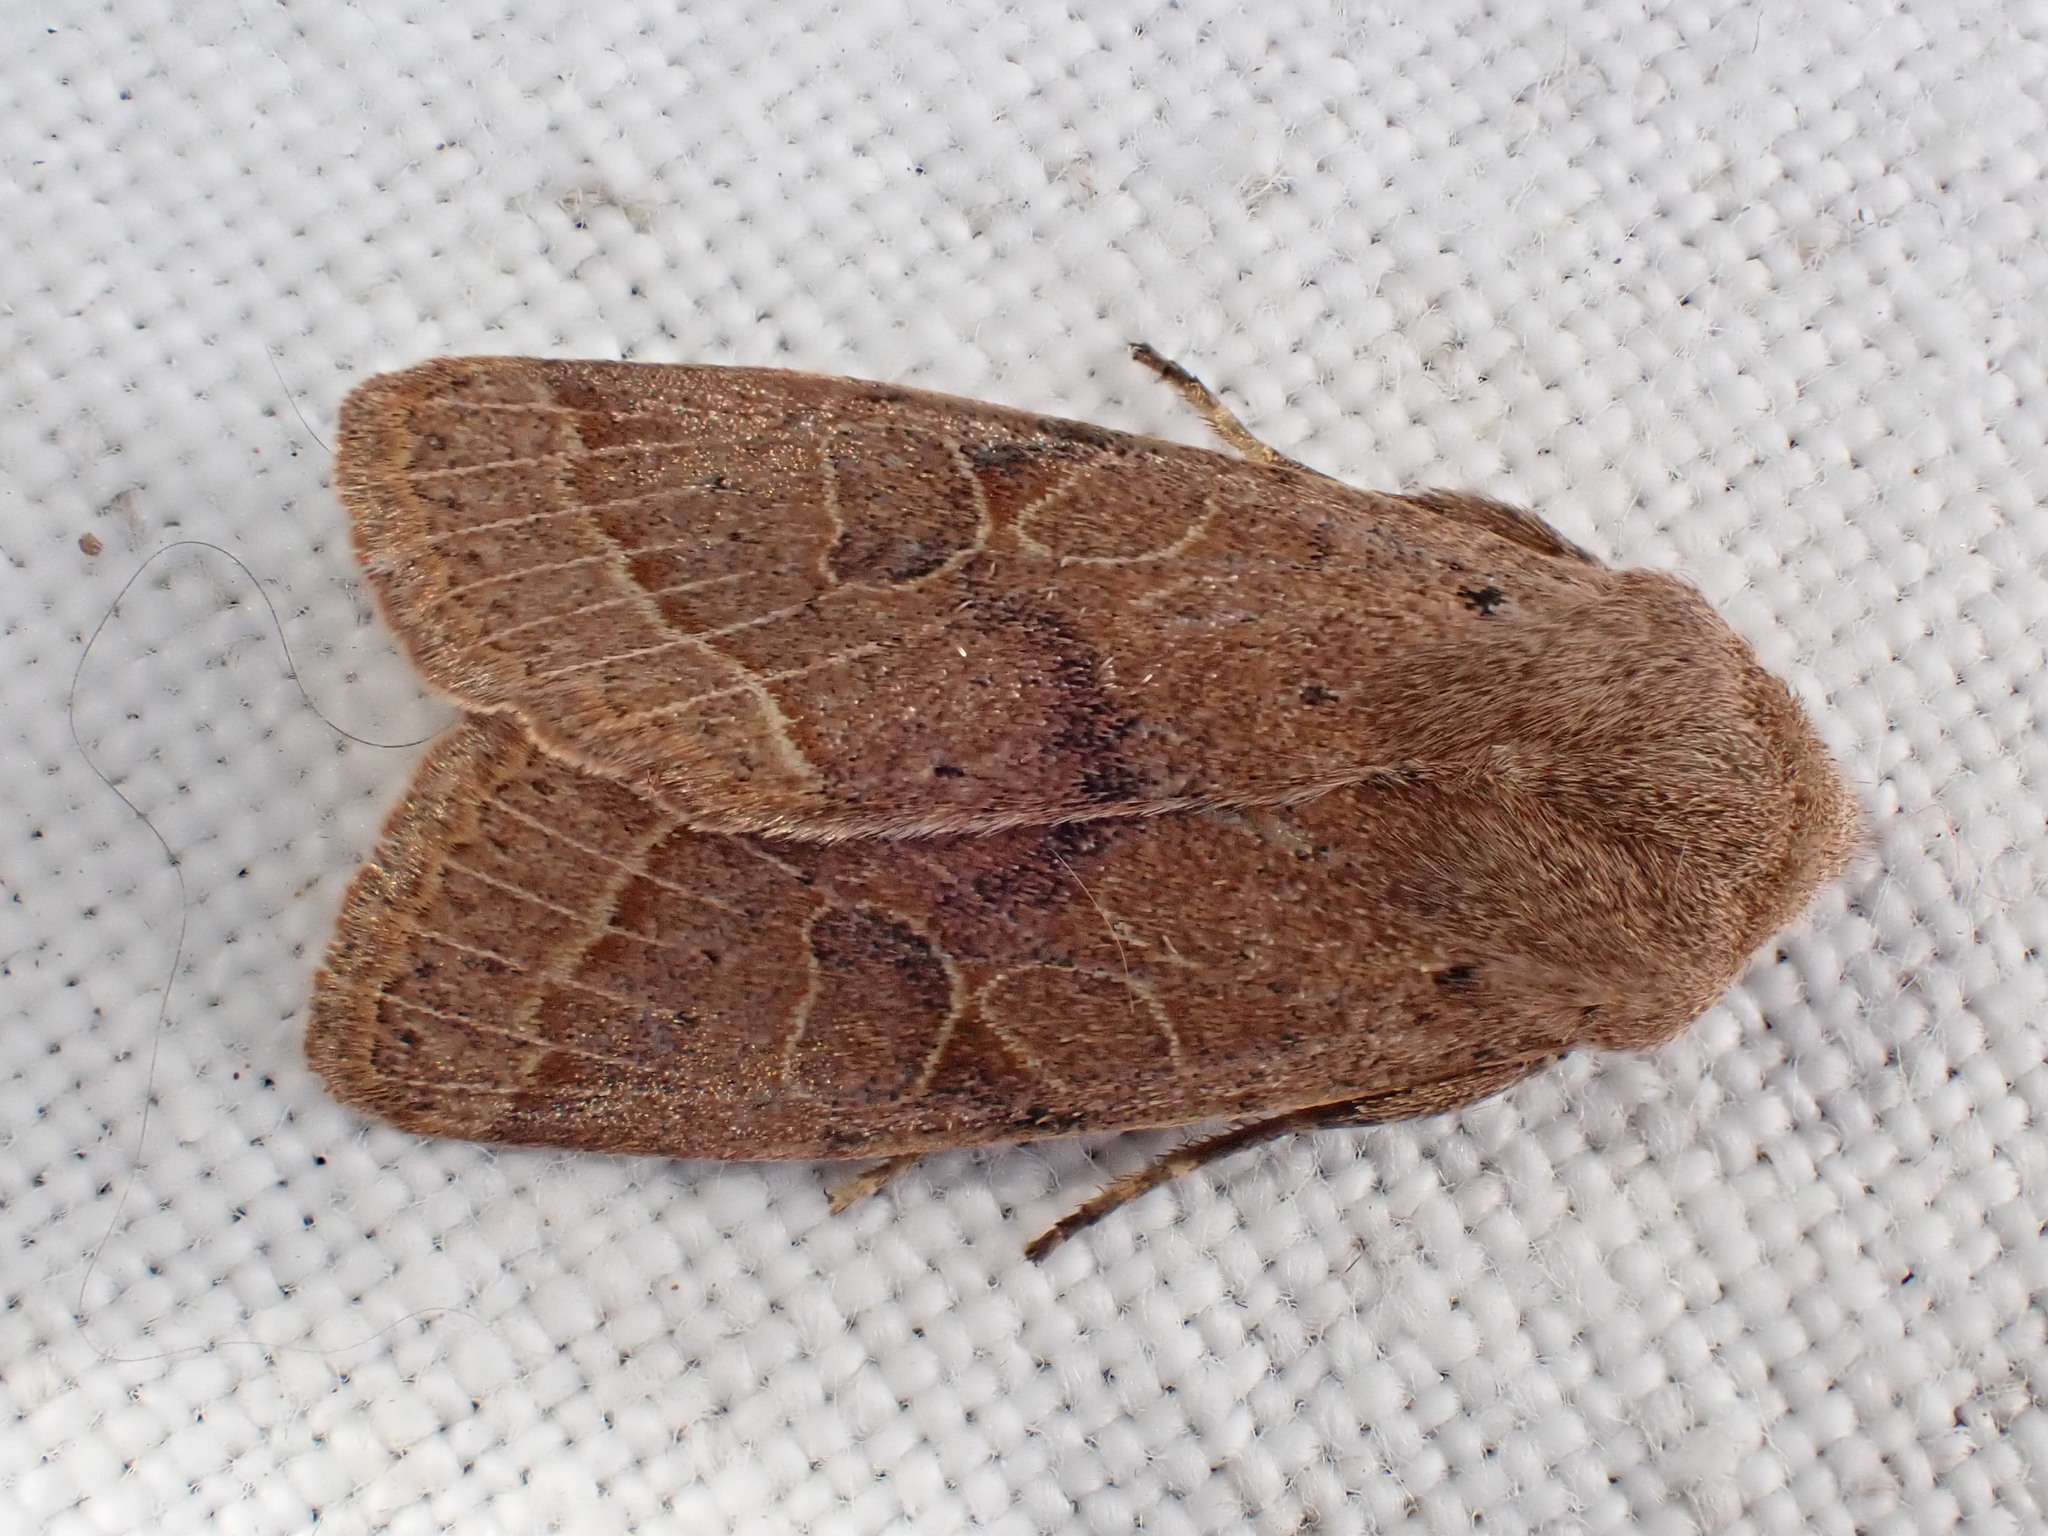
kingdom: Animalia
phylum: Arthropoda
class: Insecta
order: Lepidoptera
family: Noctuidae
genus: Orthosia
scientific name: Orthosia cerasi
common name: Common quaker
